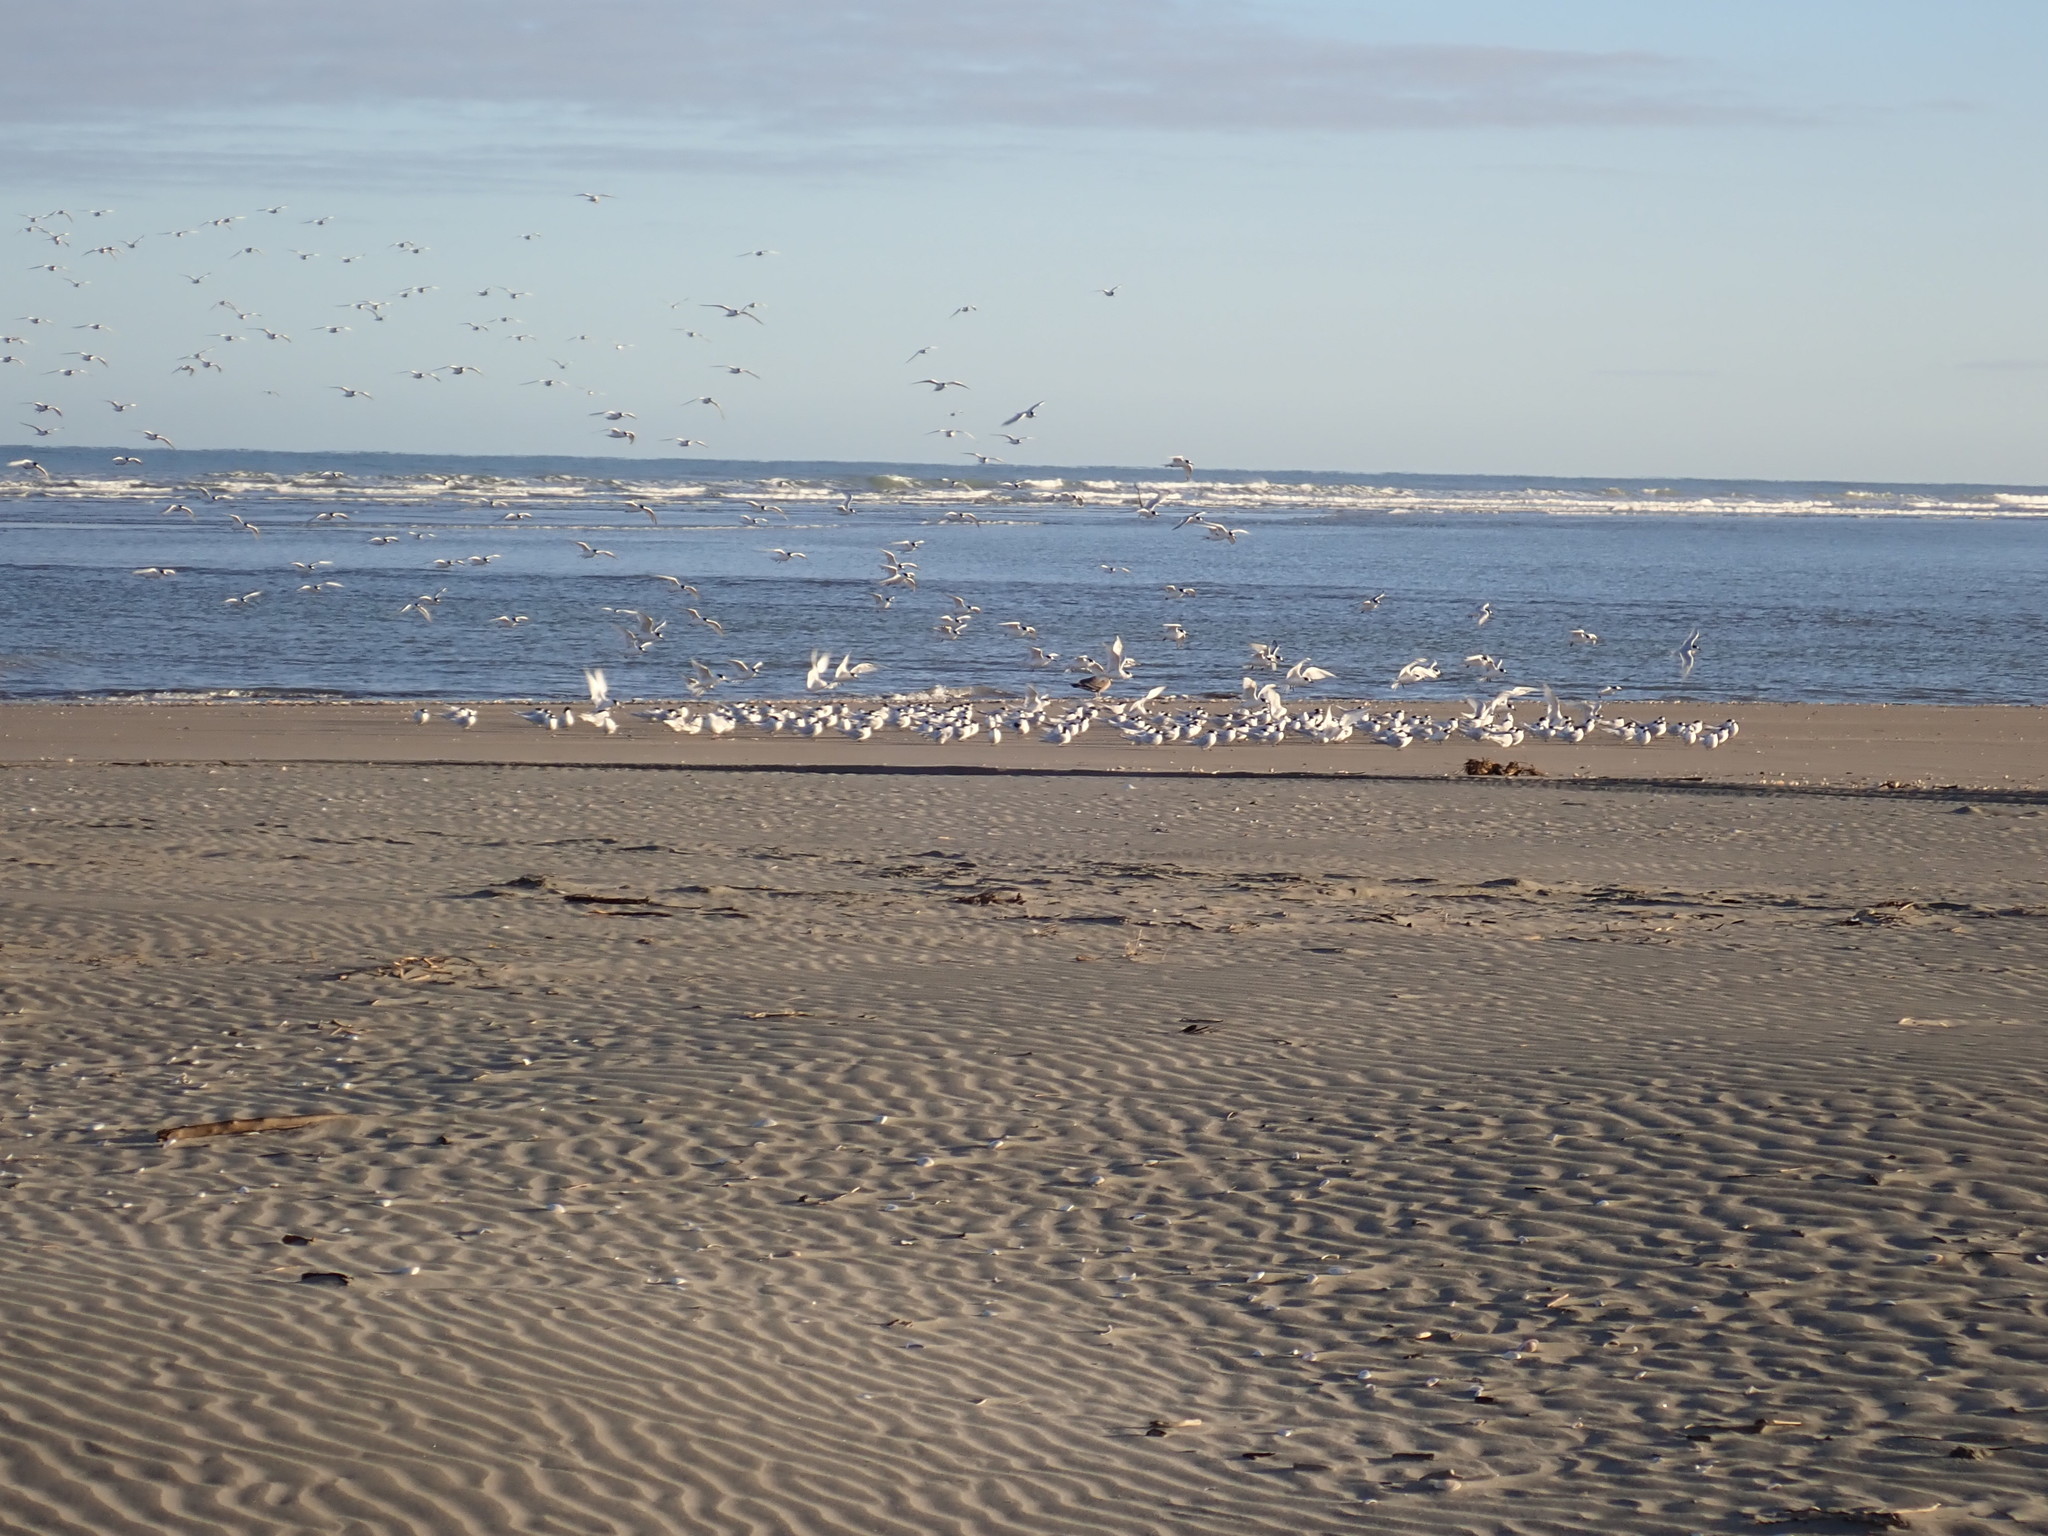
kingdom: Animalia
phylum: Chordata
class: Aves
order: Charadriiformes
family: Laridae
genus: Sterna
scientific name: Sterna striata
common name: White-fronted tern
